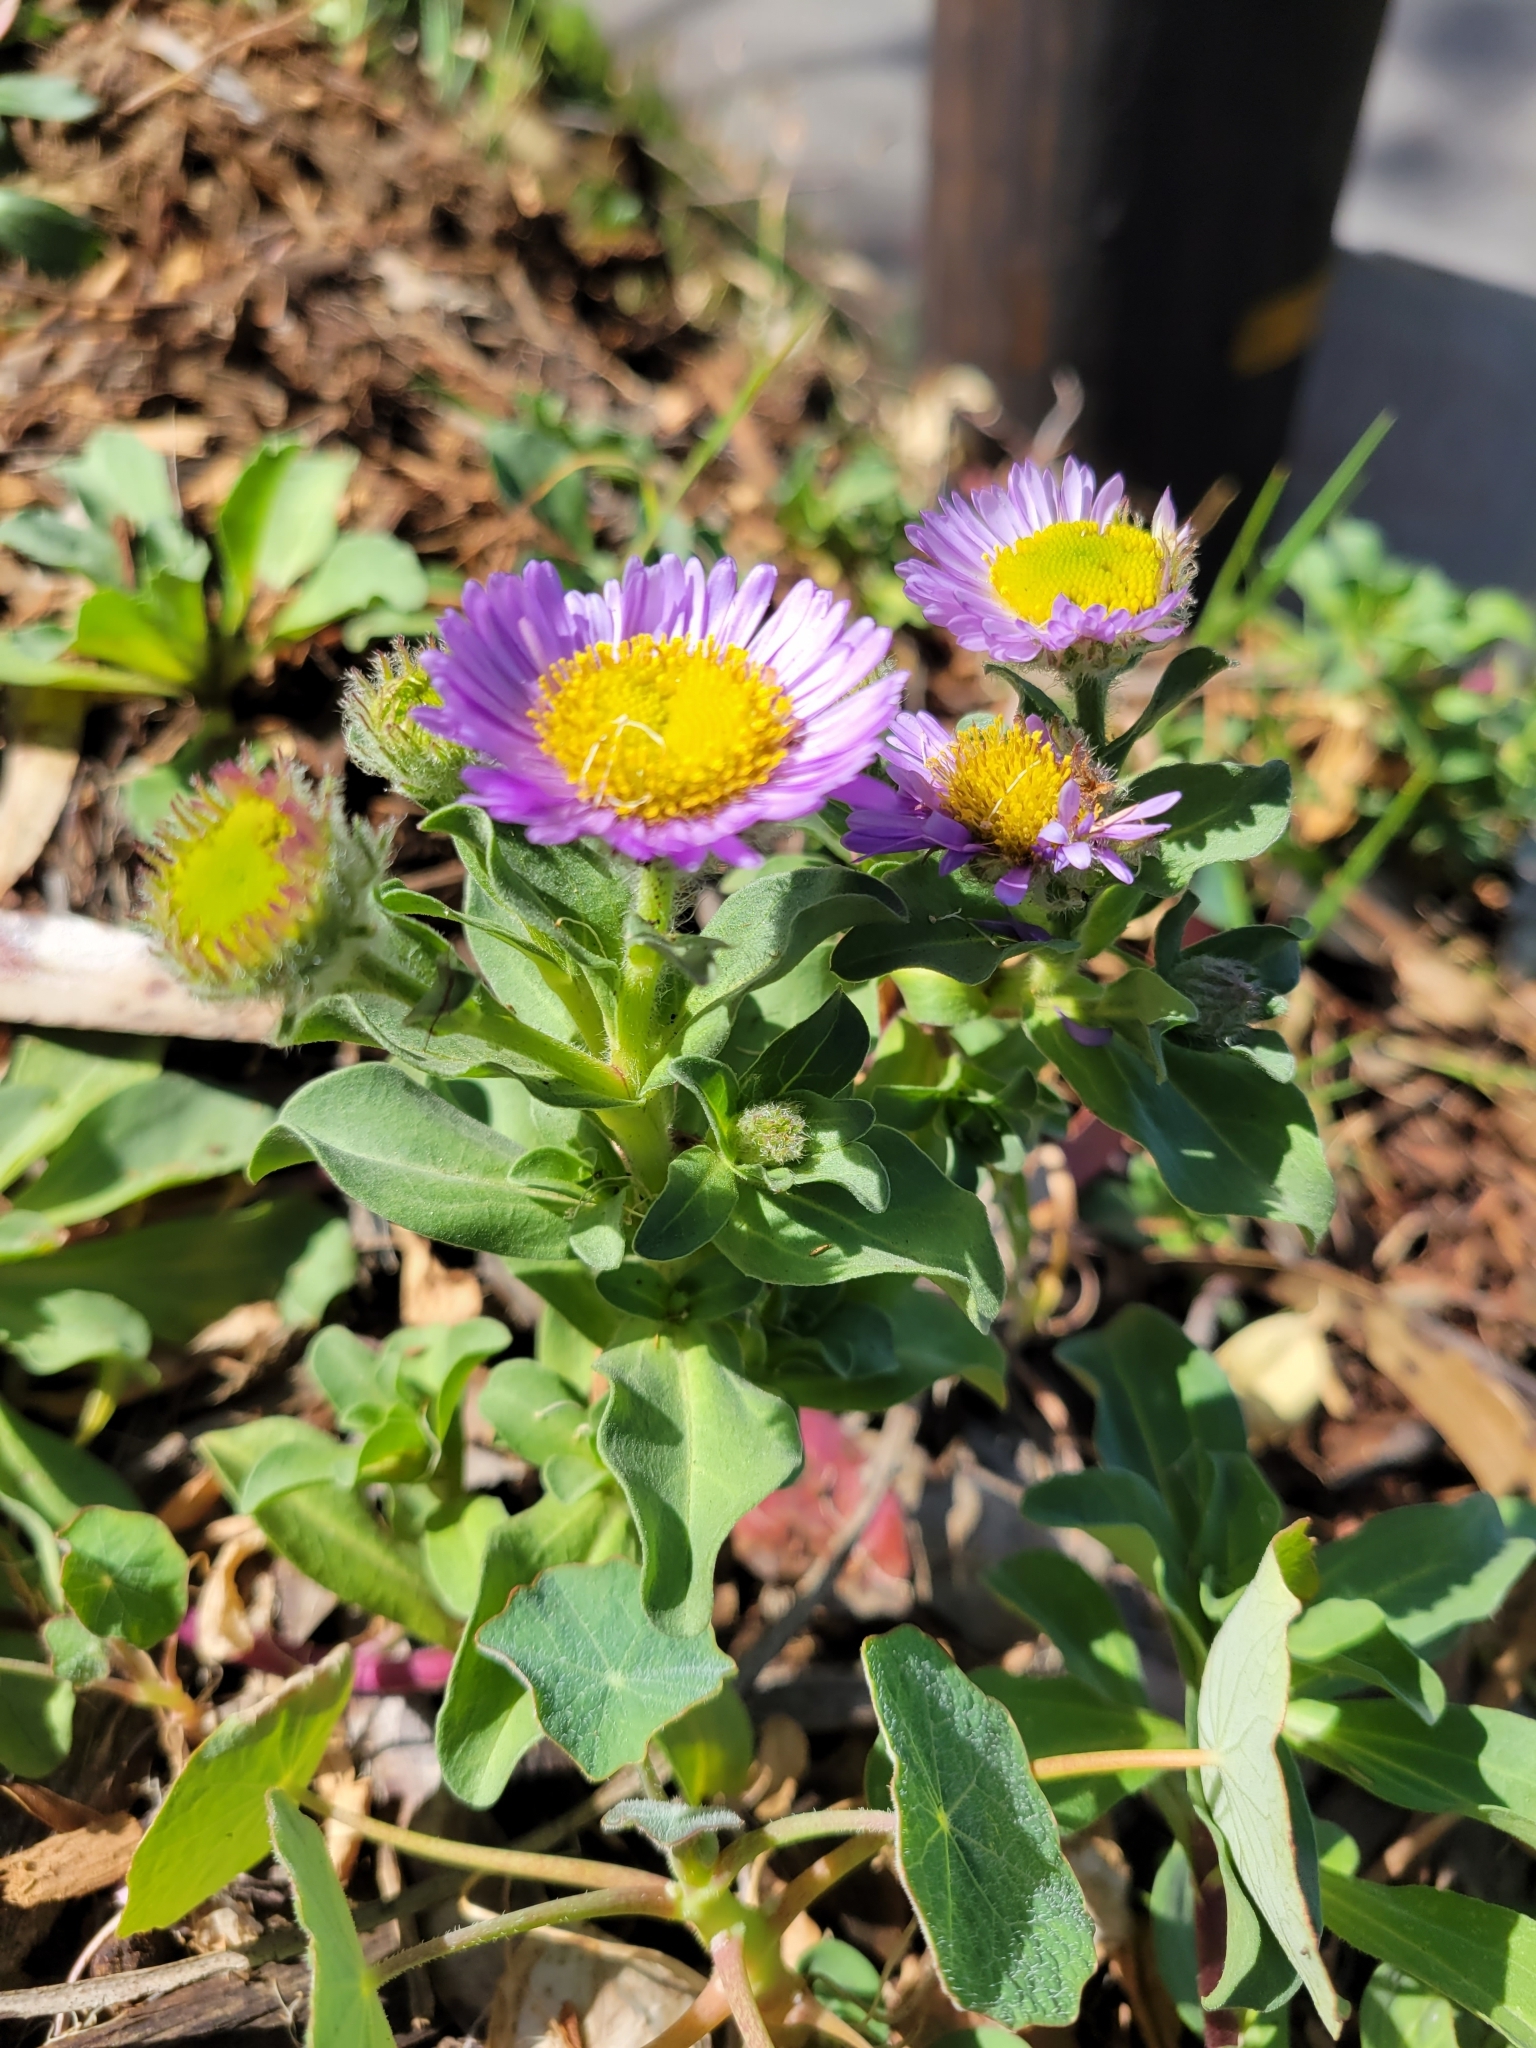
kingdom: Plantae
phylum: Tracheophyta
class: Magnoliopsida
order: Asterales
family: Asteraceae
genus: Erigeron
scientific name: Erigeron glaucus
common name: Seaside daisy
